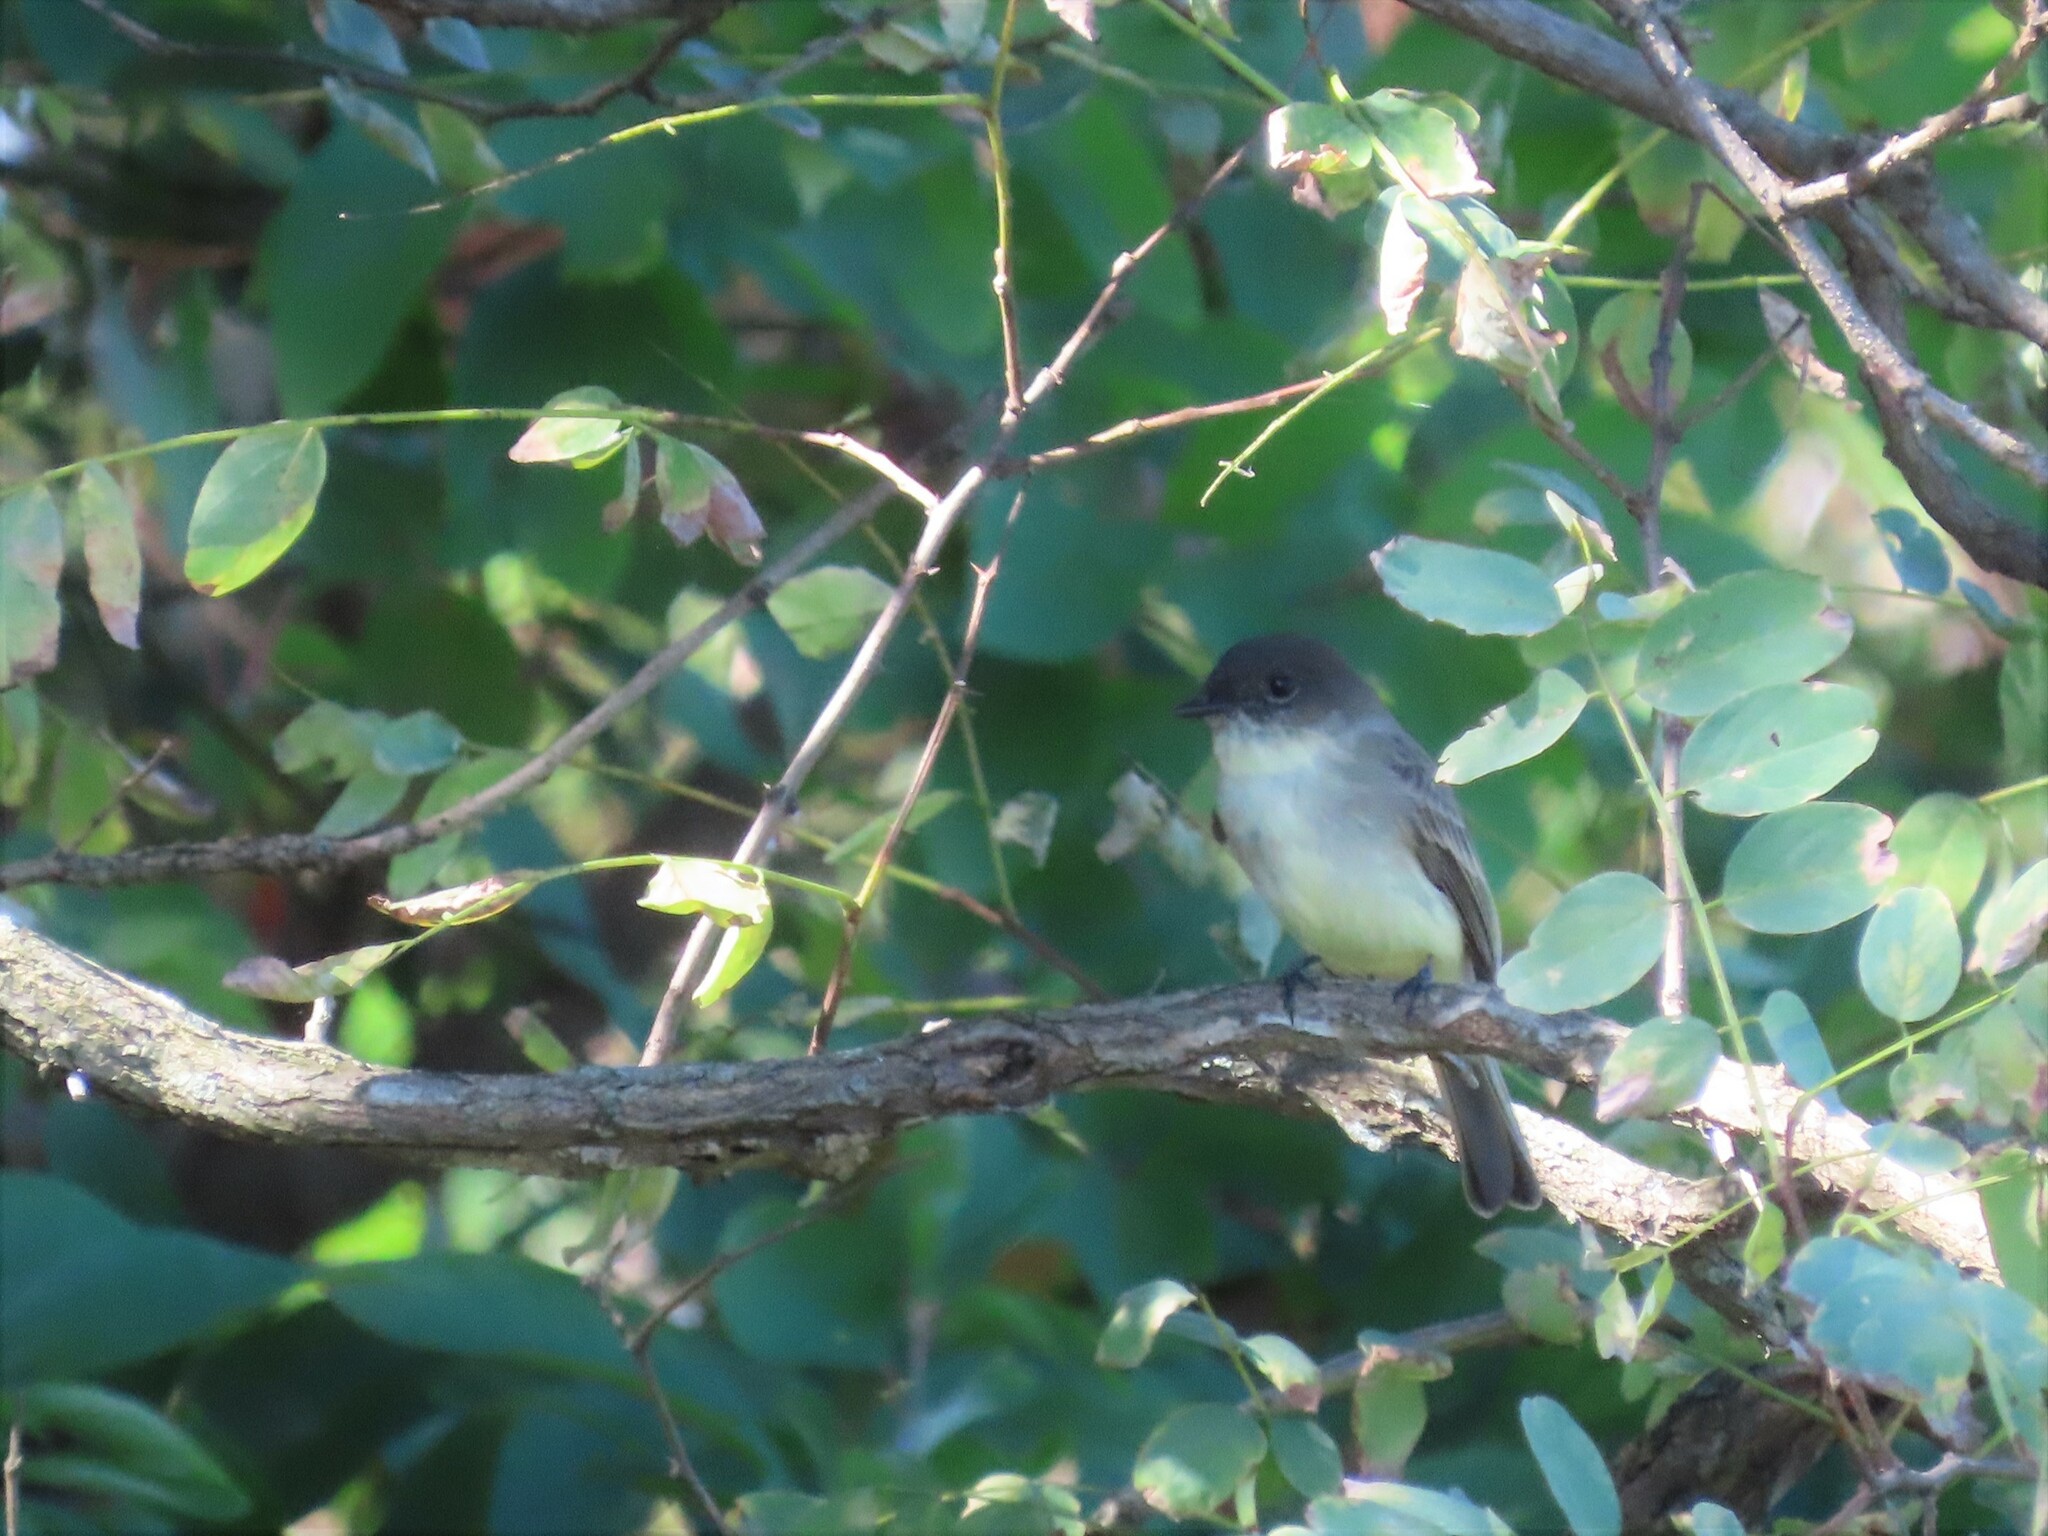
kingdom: Animalia
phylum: Chordata
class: Aves
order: Passeriformes
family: Tyrannidae
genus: Sayornis
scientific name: Sayornis phoebe
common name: Eastern phoebe
